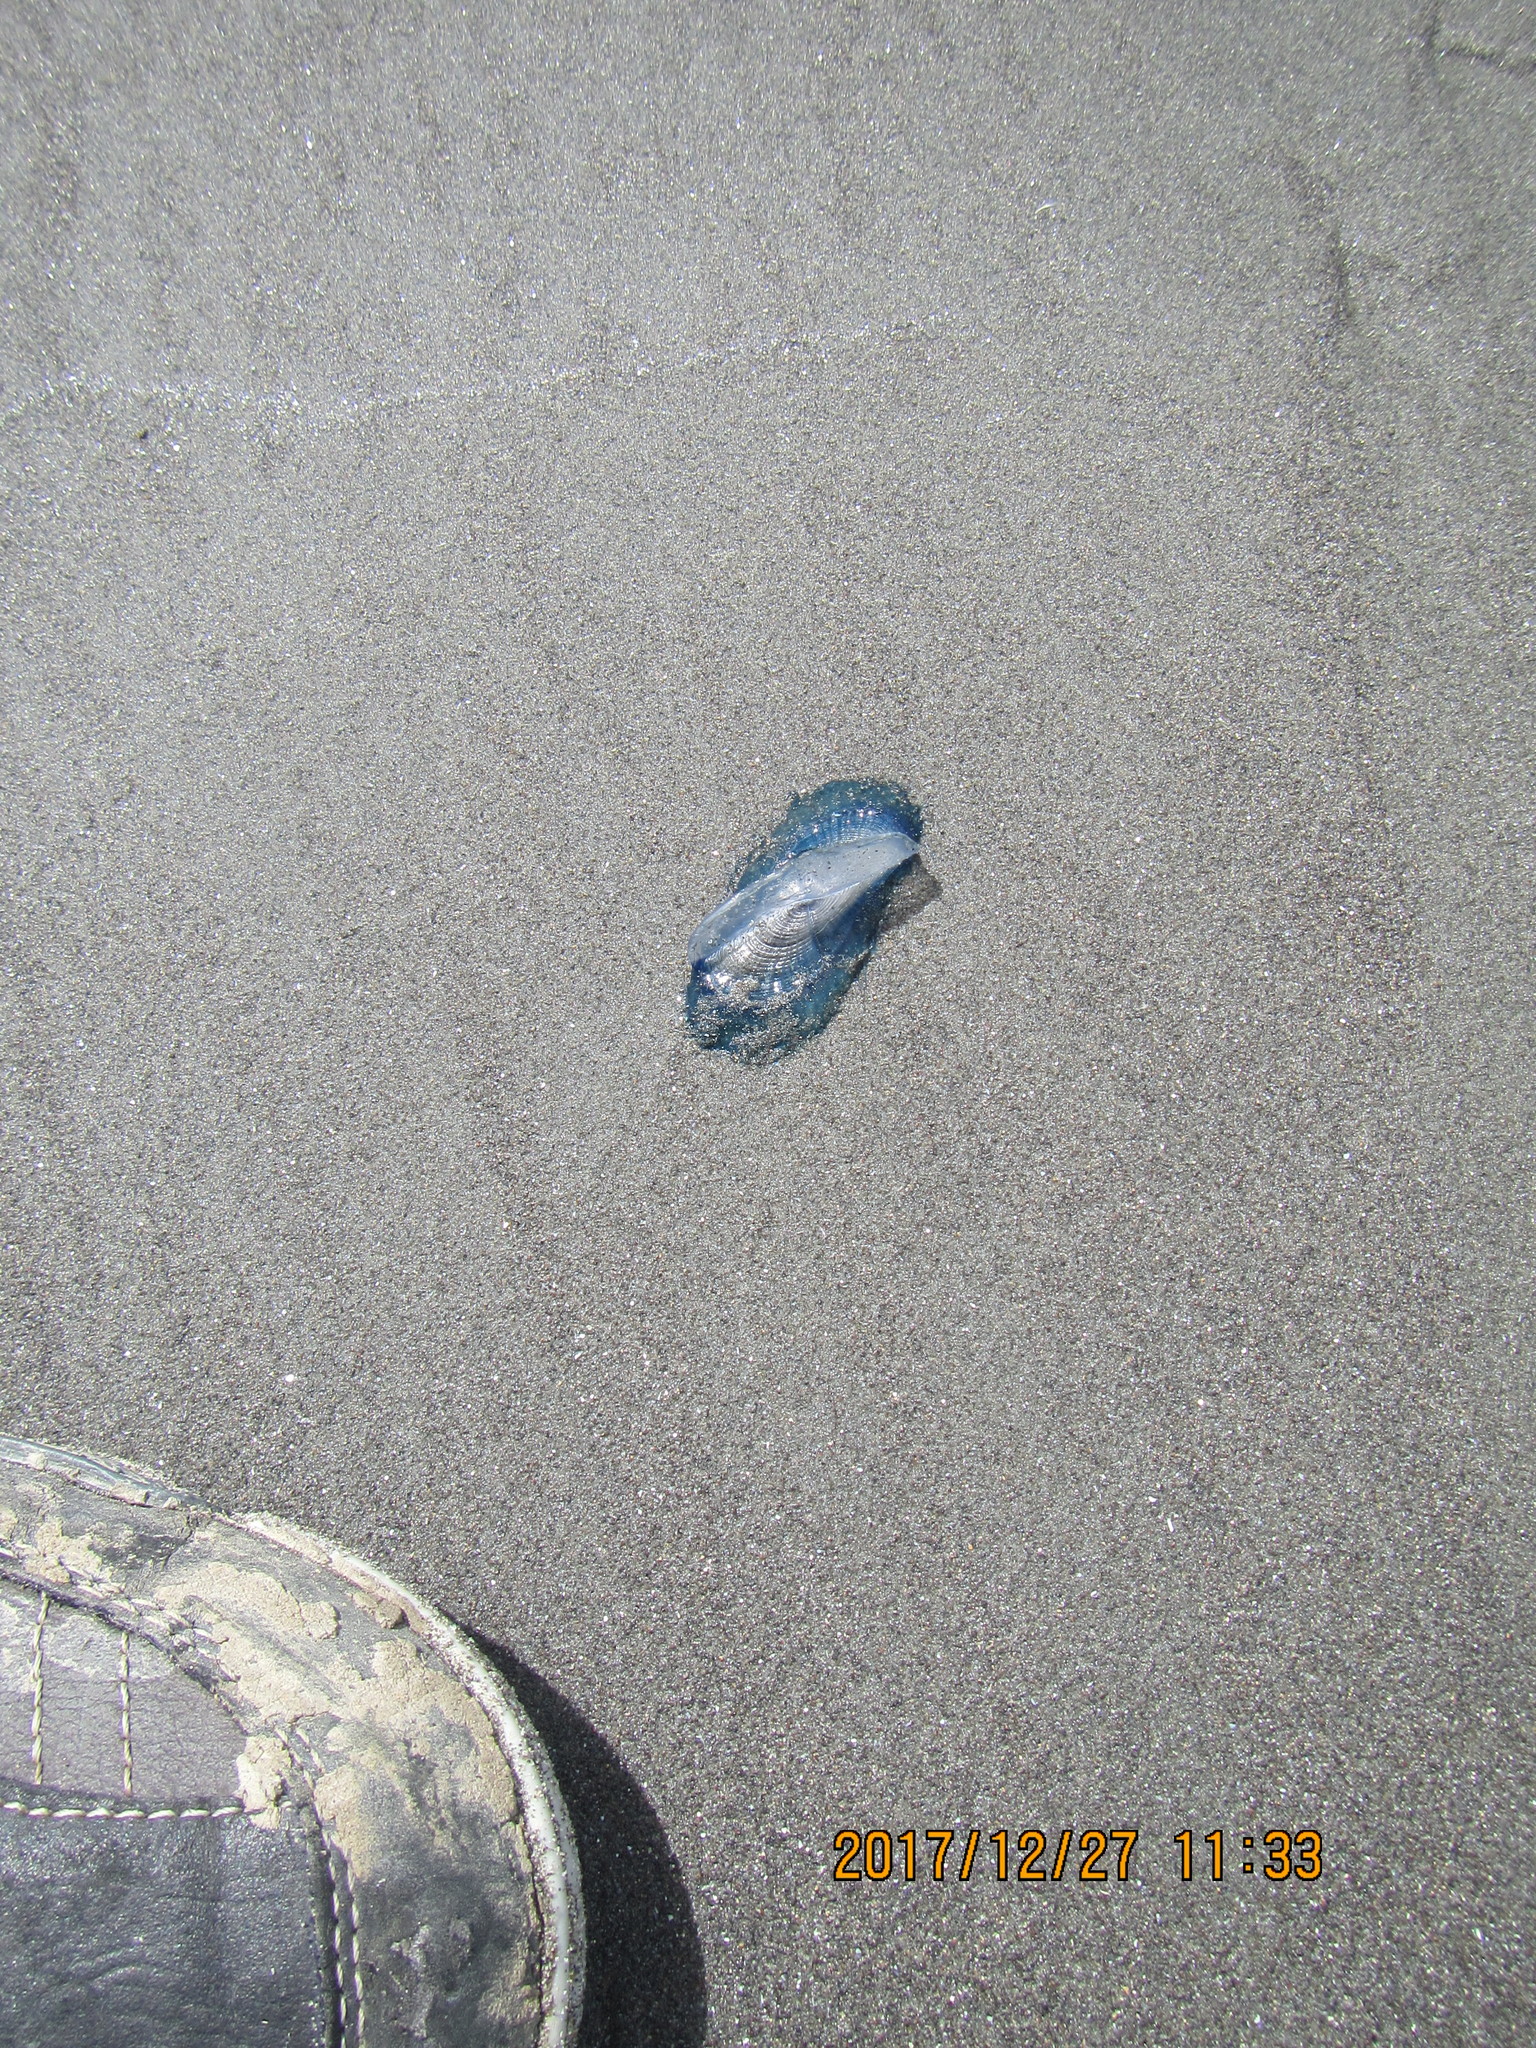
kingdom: Animalia
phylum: Cnidaria
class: Hydrozoa
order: Anthoathecata
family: Porpitidae
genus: Velella
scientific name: Velella velella
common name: By-the-wind-sailor
